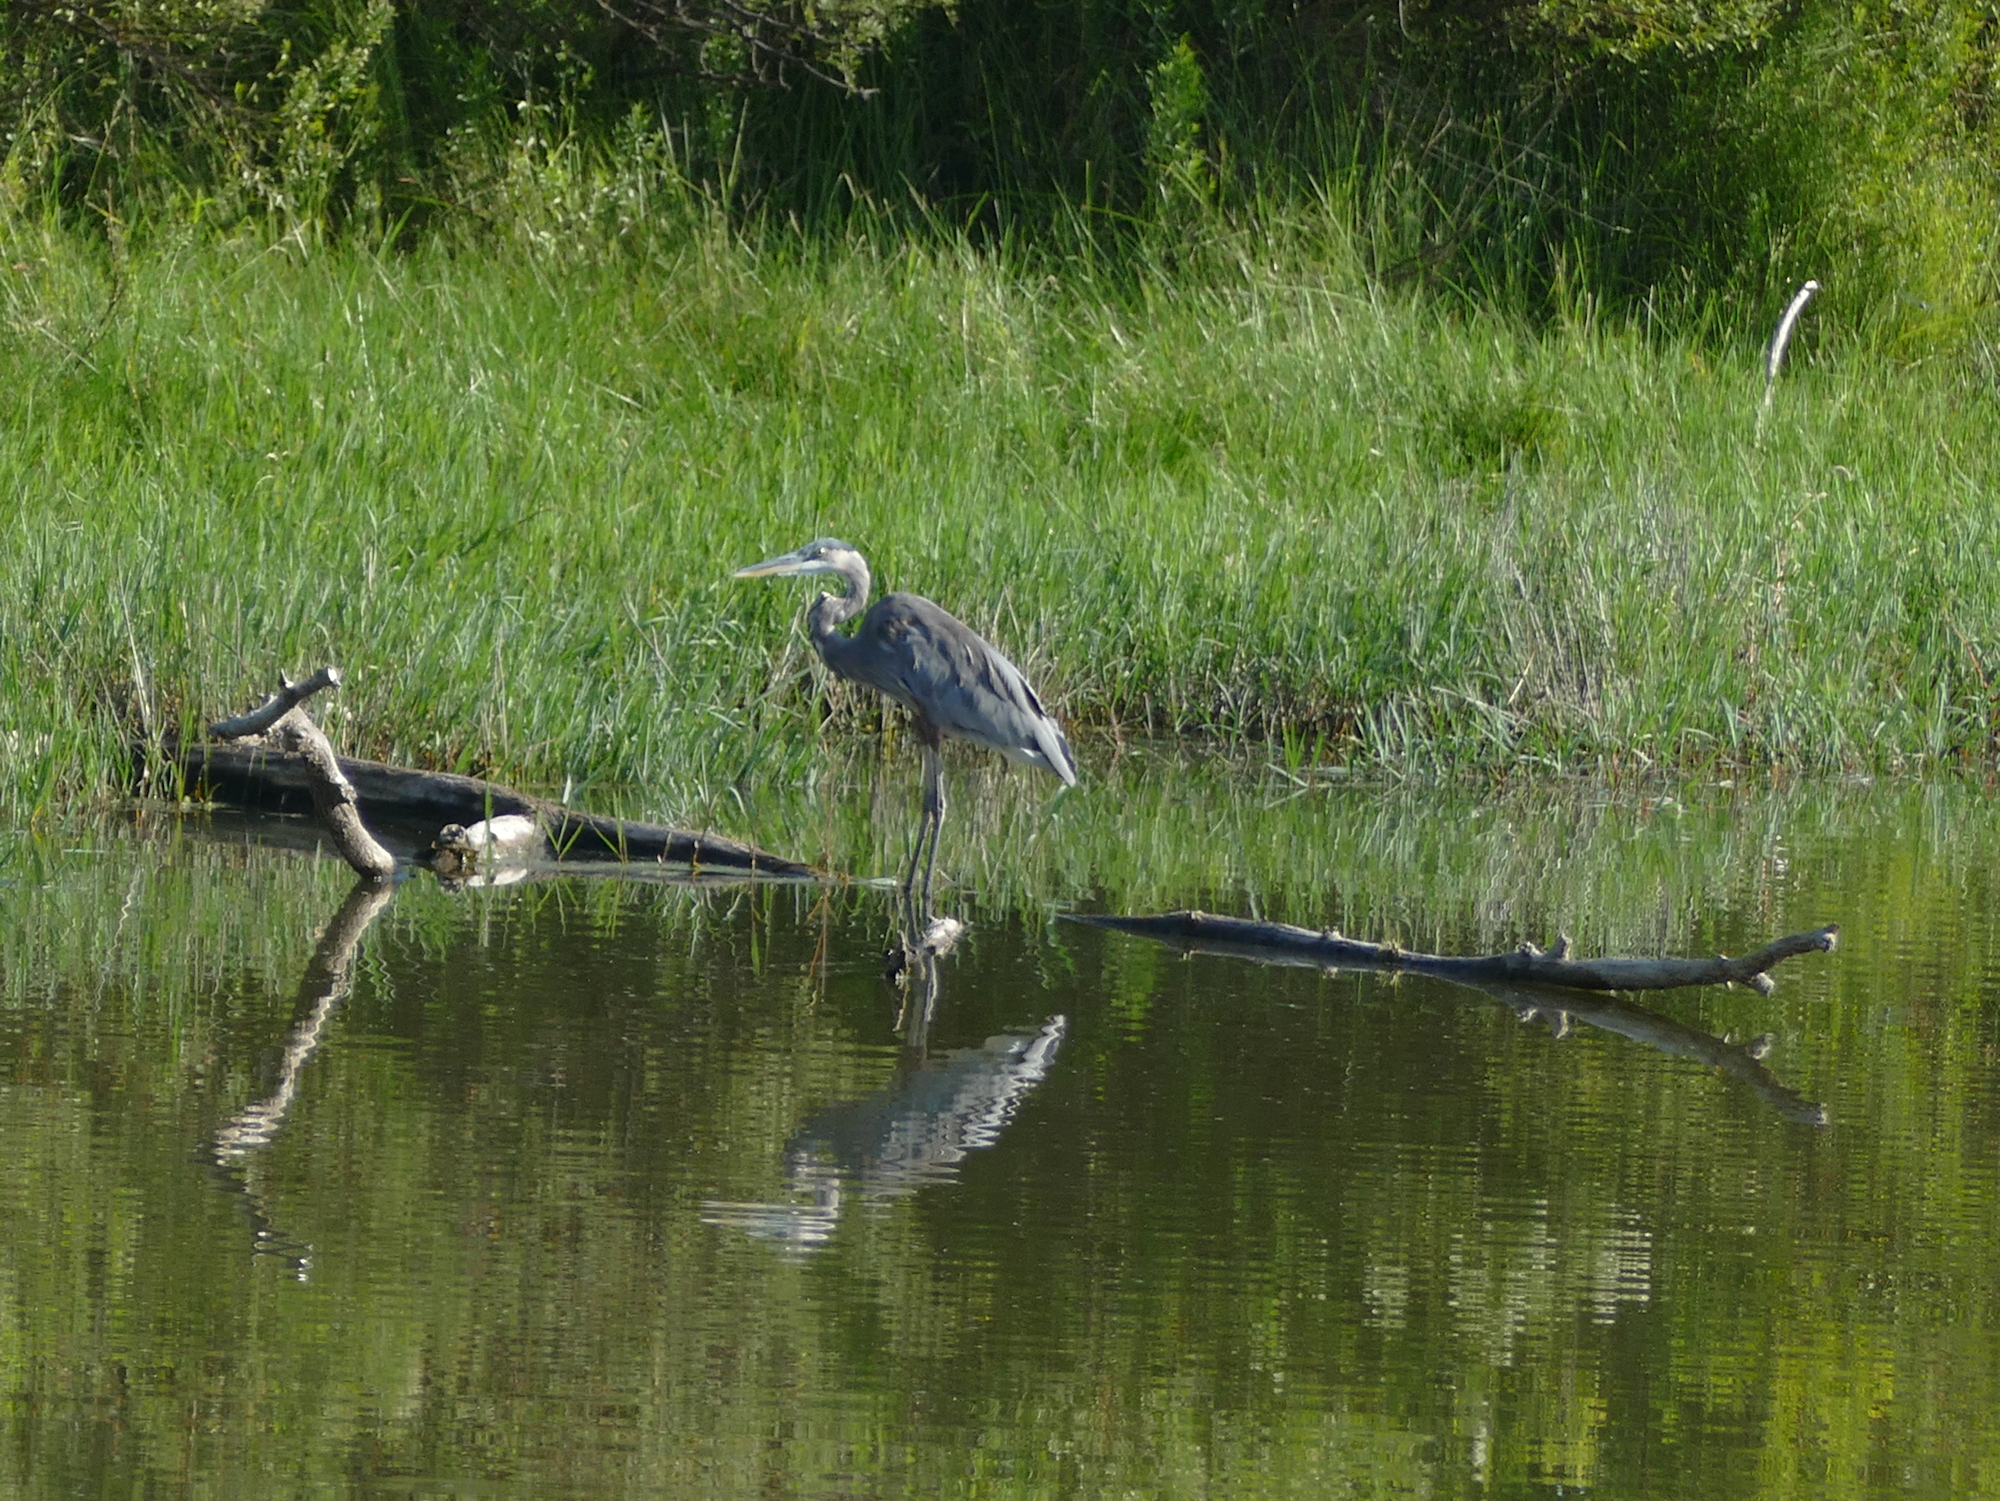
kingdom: Animalia
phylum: Chordata
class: Aves
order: Pelecaniformes
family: Ardeidae
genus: Ardea
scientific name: Ardea herodias
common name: Great blue heron
